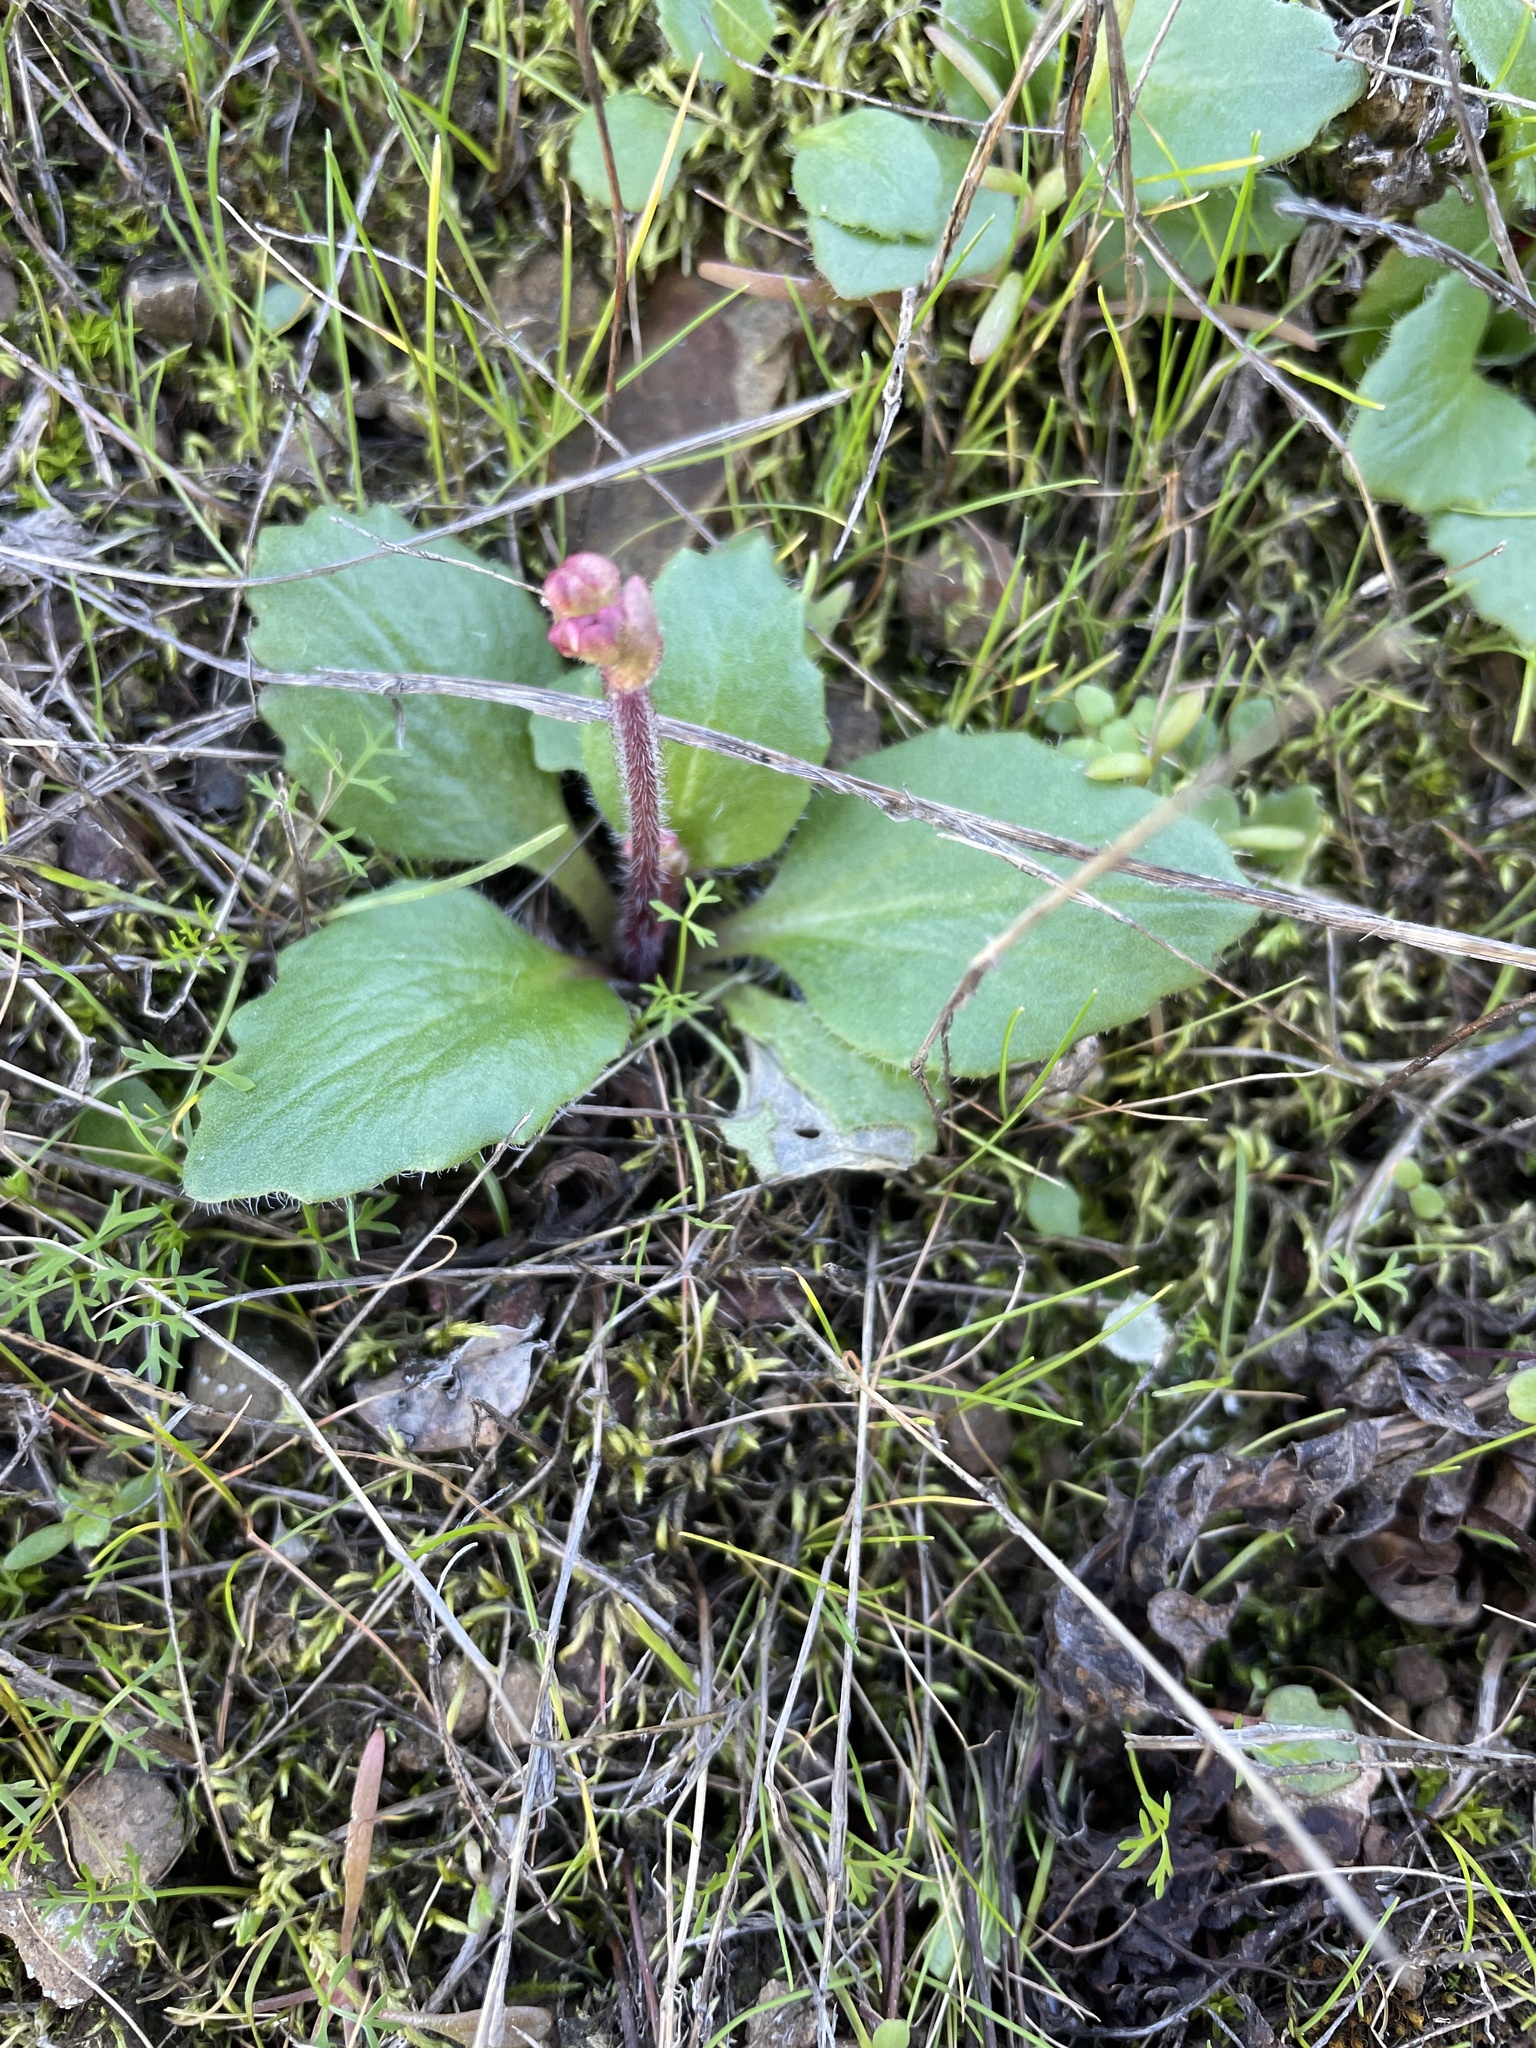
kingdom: Plantae
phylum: Tracheophyta
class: Magnoliopsida
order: Saxifragales
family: Saxifragaceae
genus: Micranthes
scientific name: Micranthes californica
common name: California saxifrage
